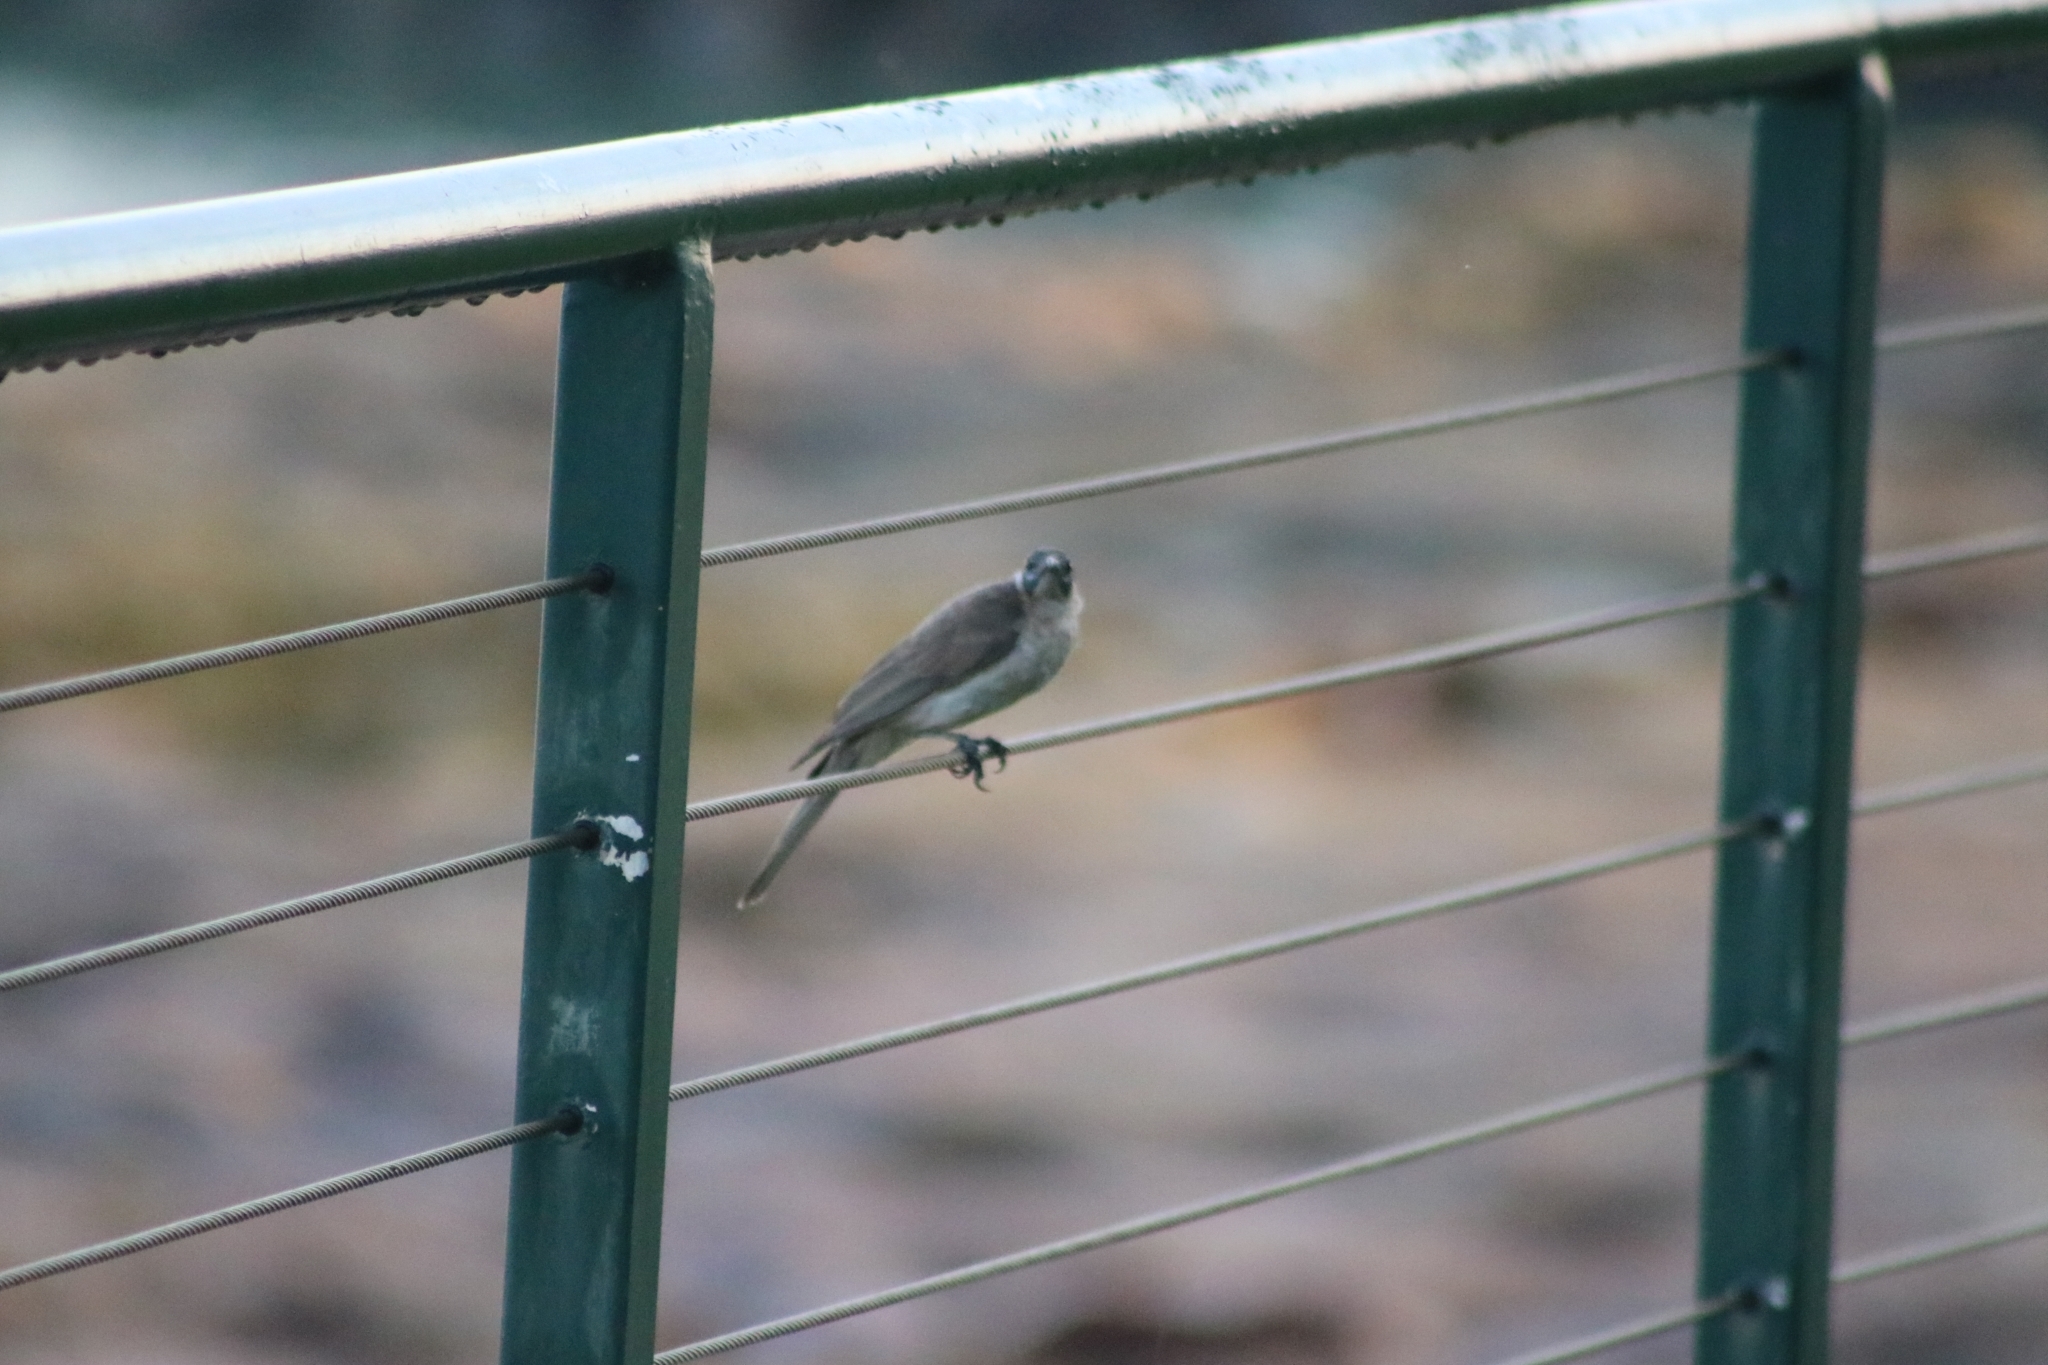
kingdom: Animalia
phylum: Chordata
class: Aves
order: Passeriformes
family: Meliphagidae
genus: Philemon
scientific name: Philemon citreogularis
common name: Little friarbird
